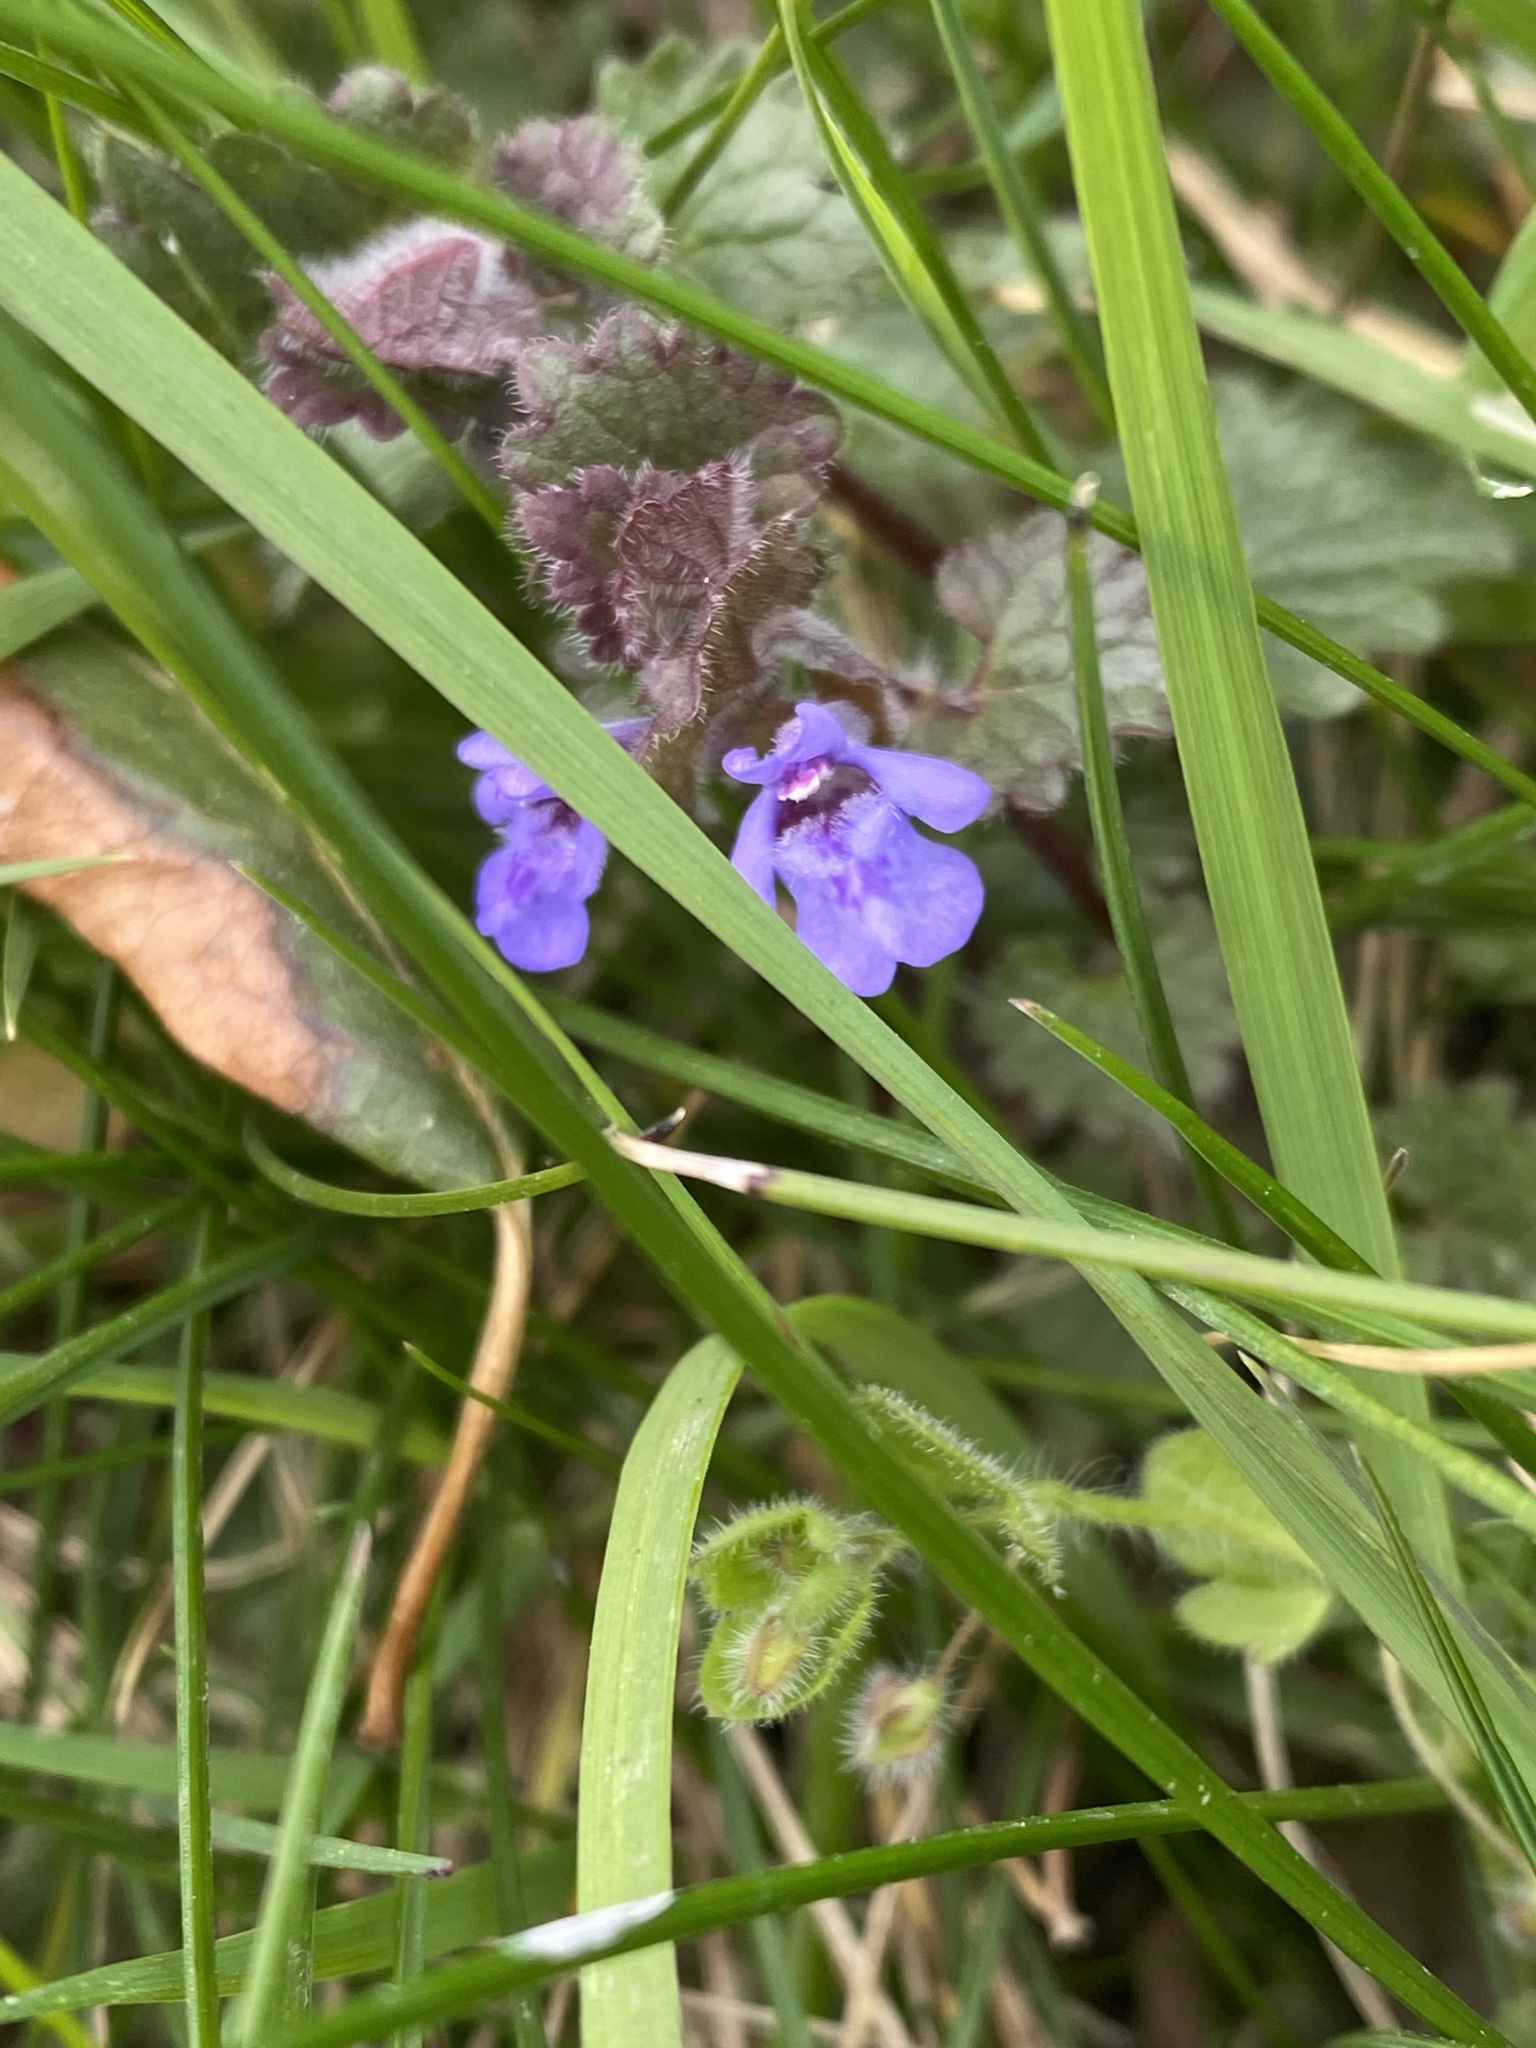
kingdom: Plantae
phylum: Tracheophyta
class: Magnoliopsida
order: Lamiales
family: Lamiaceae
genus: Glechoma
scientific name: Glechoma hederacea
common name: Ground ivy
